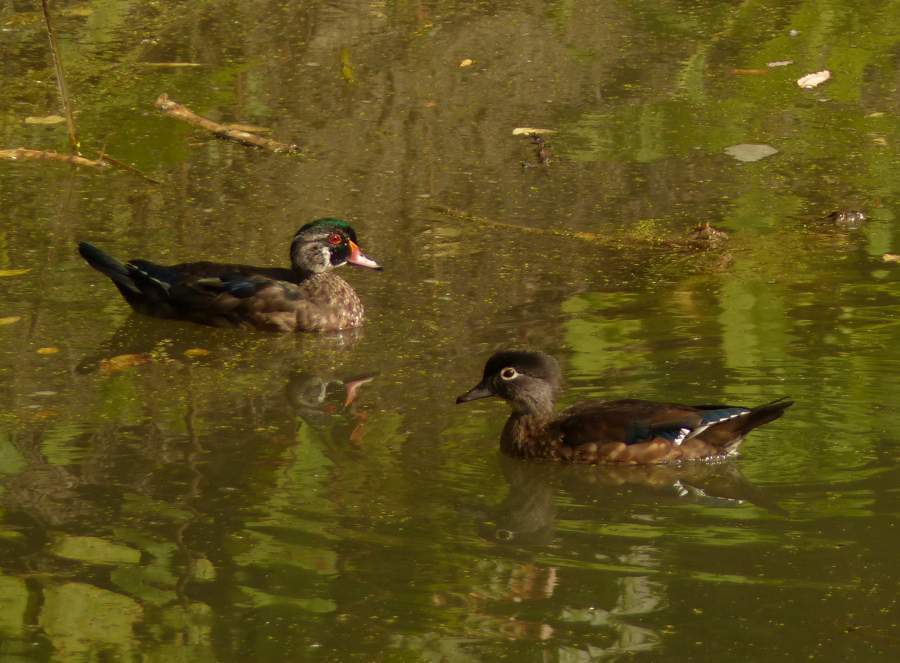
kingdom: Animalia
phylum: Chordata
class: Aves
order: Anseriformes
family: Anatidae
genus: Aix
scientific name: Aix sponsa
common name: Wood duck
